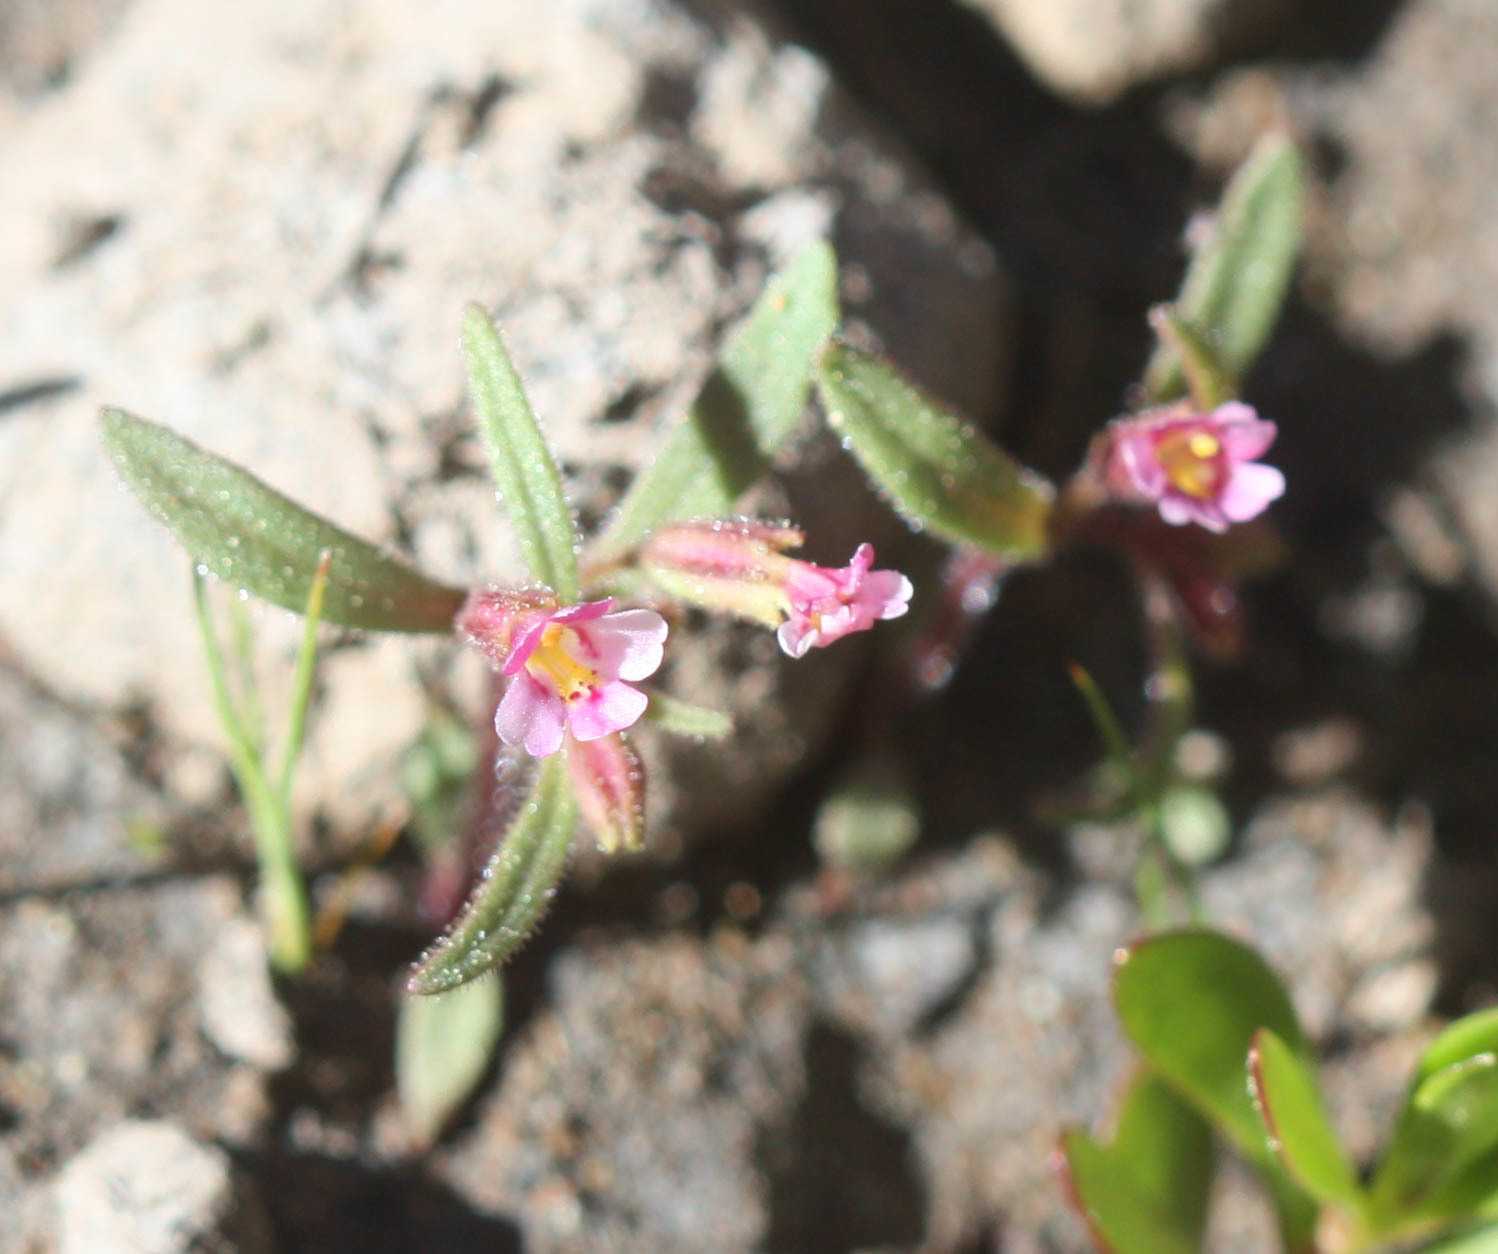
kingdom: Plantae
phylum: Tracheophyta
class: Magnoliopsida
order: Lamiales
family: Phrymaceae
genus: Erythranthe
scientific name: Erythranthe breweri
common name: Brewer's monkeyflower
